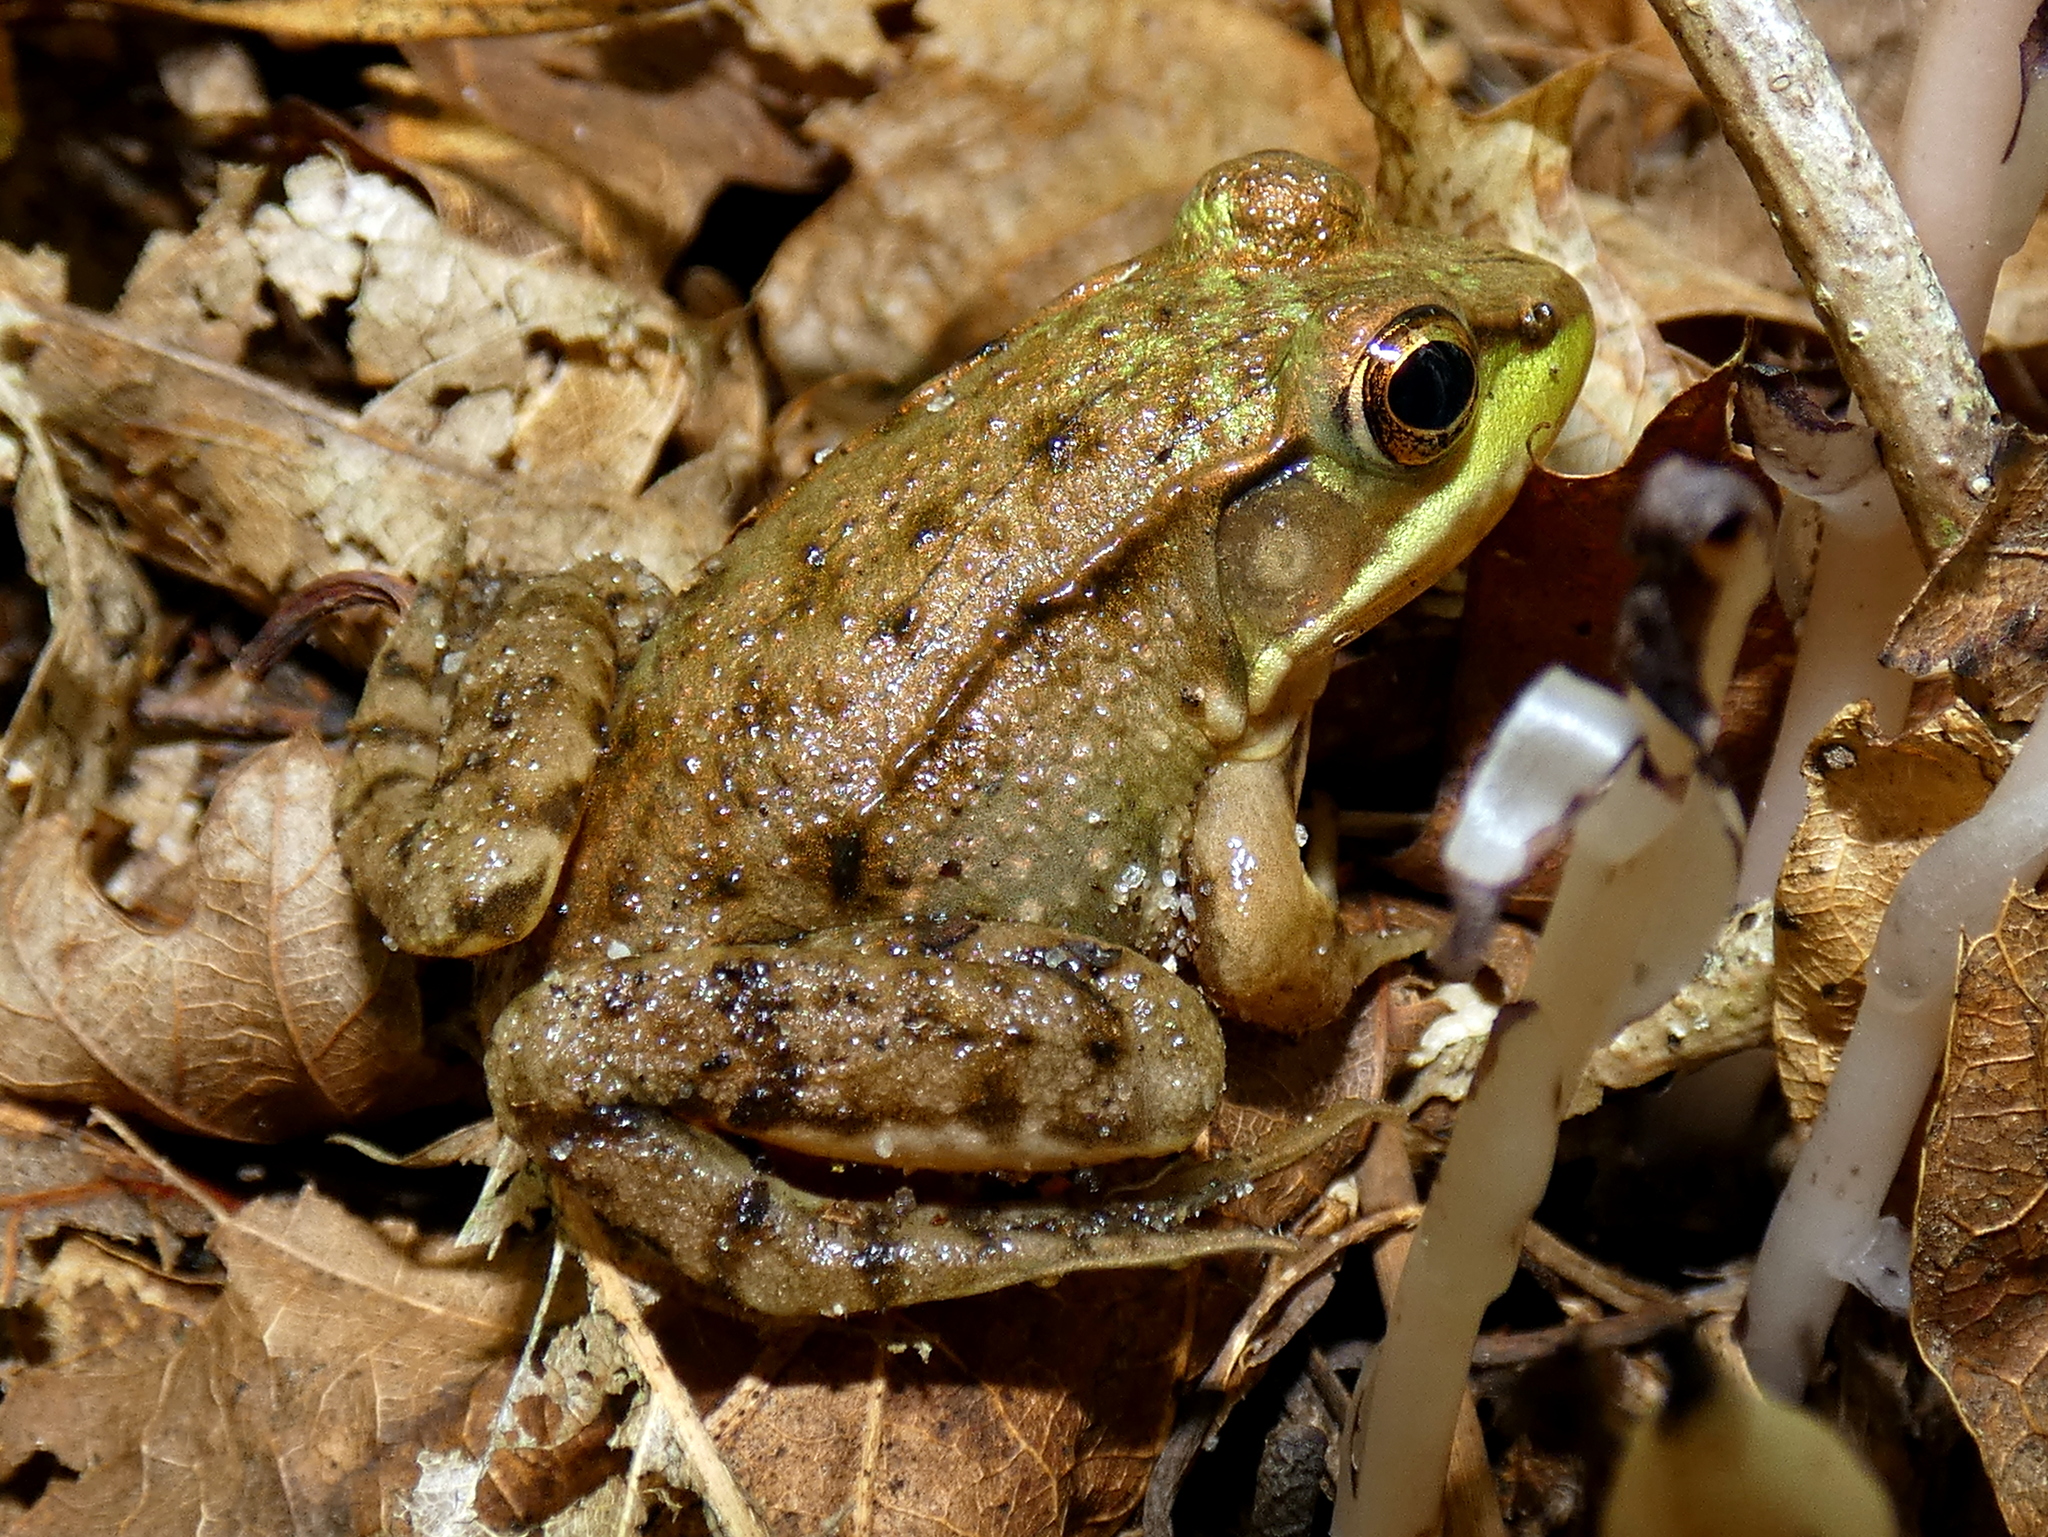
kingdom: Animalia
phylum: Chordata
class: Amphibia
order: Anura
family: Ranidae
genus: Lithobates
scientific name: Lithobates clamitans
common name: Green frog
